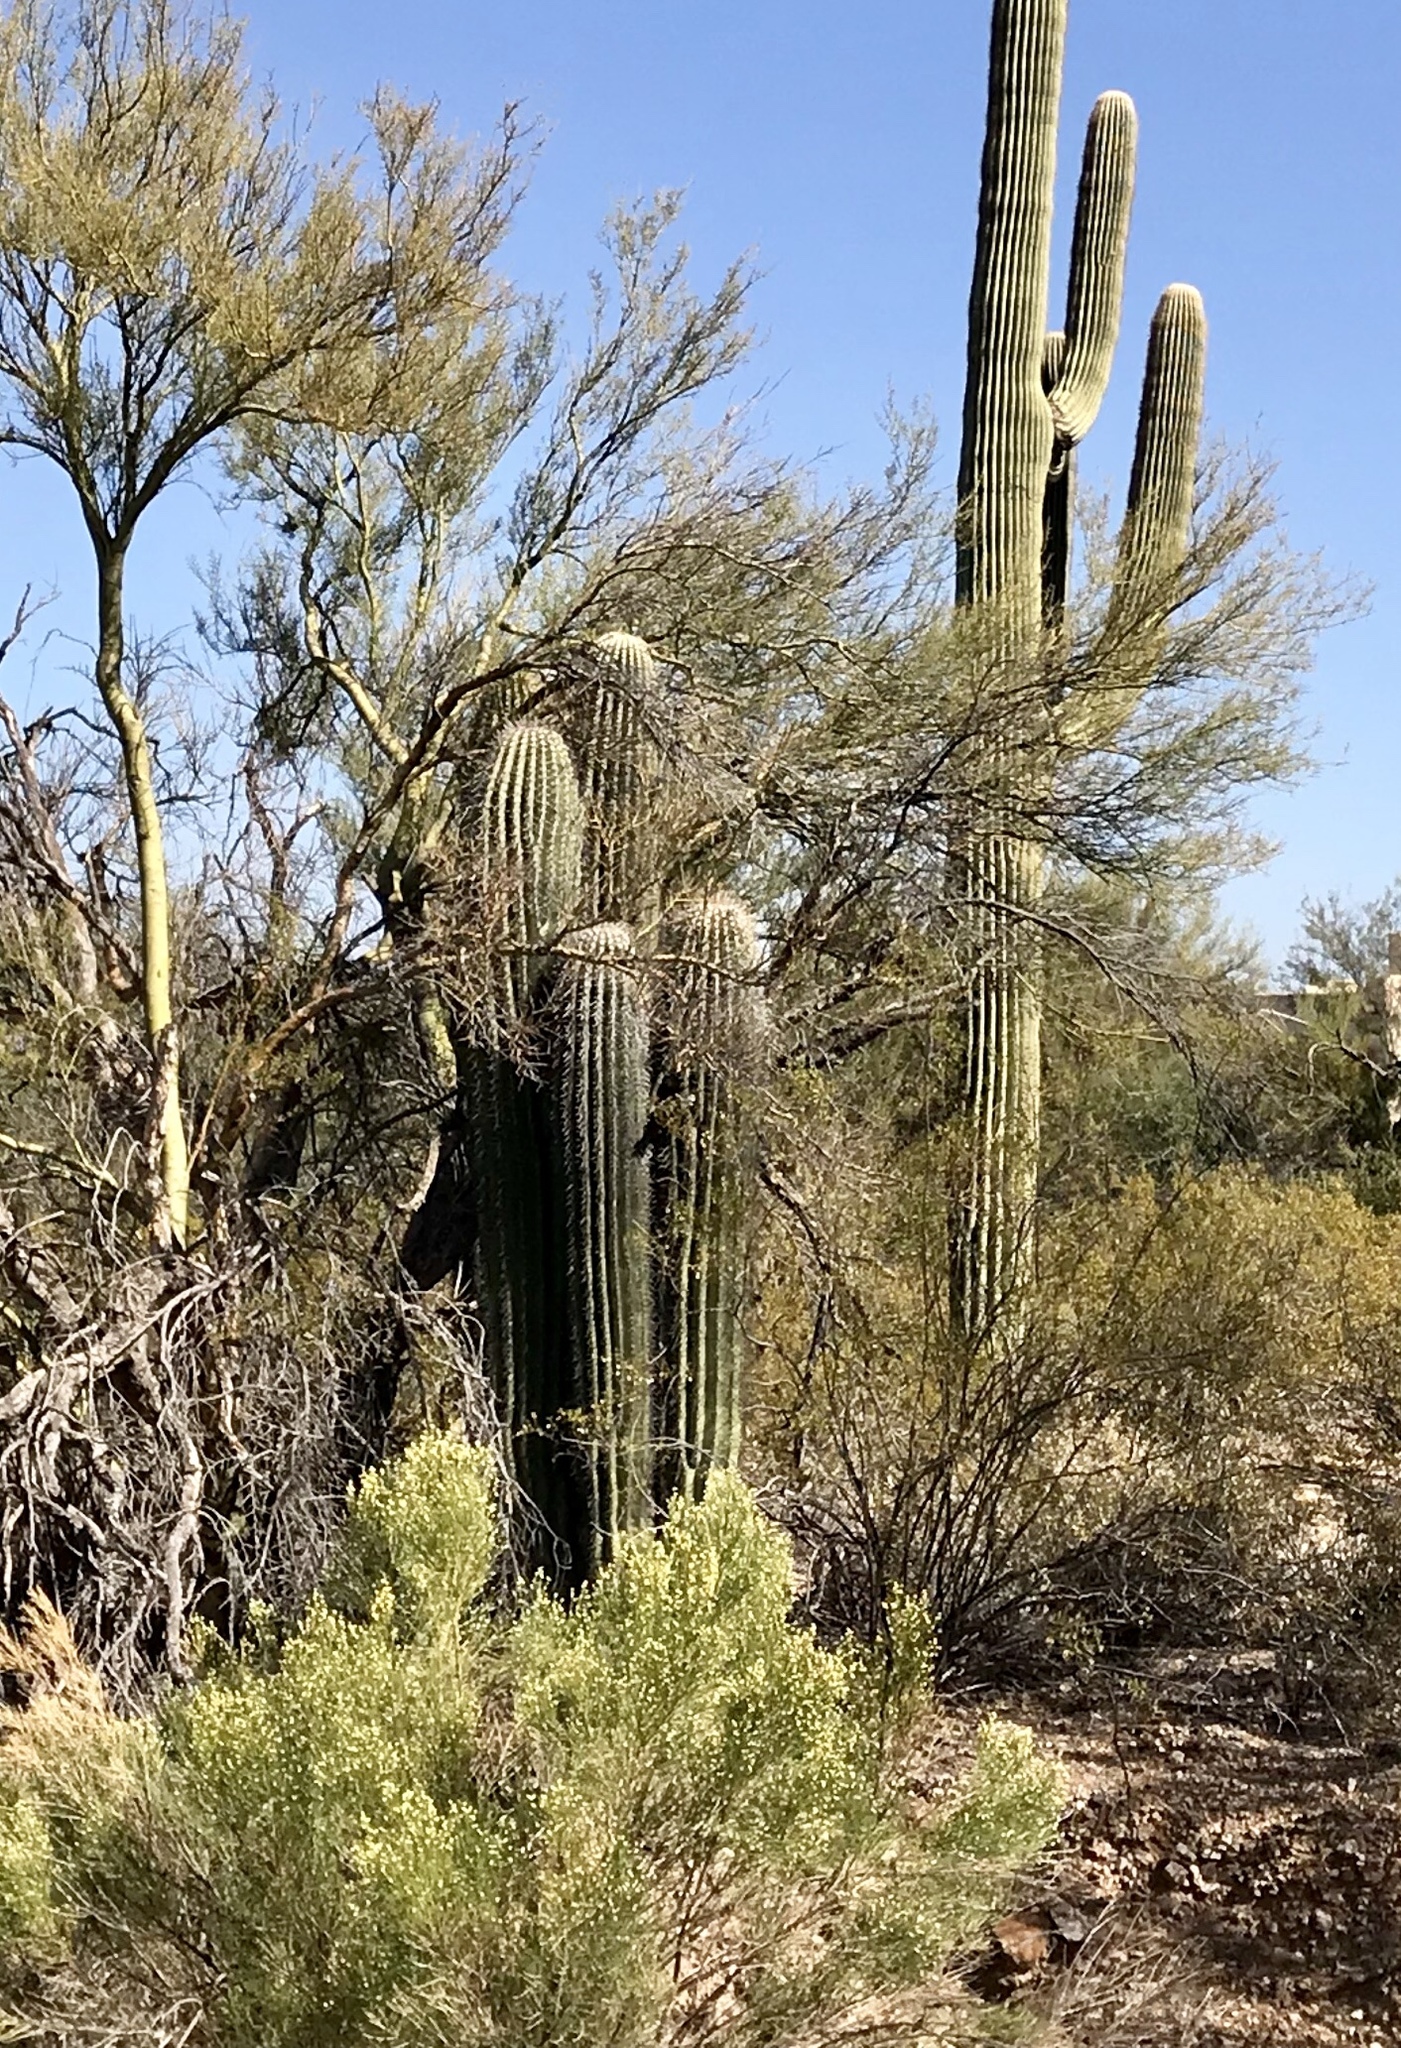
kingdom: Plantae
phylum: Tracheophyta
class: Magnoliopsida
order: Caryophyllales
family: Cactaceae
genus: Carnegiea
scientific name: Carnegiea gigantea
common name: Saguaro
